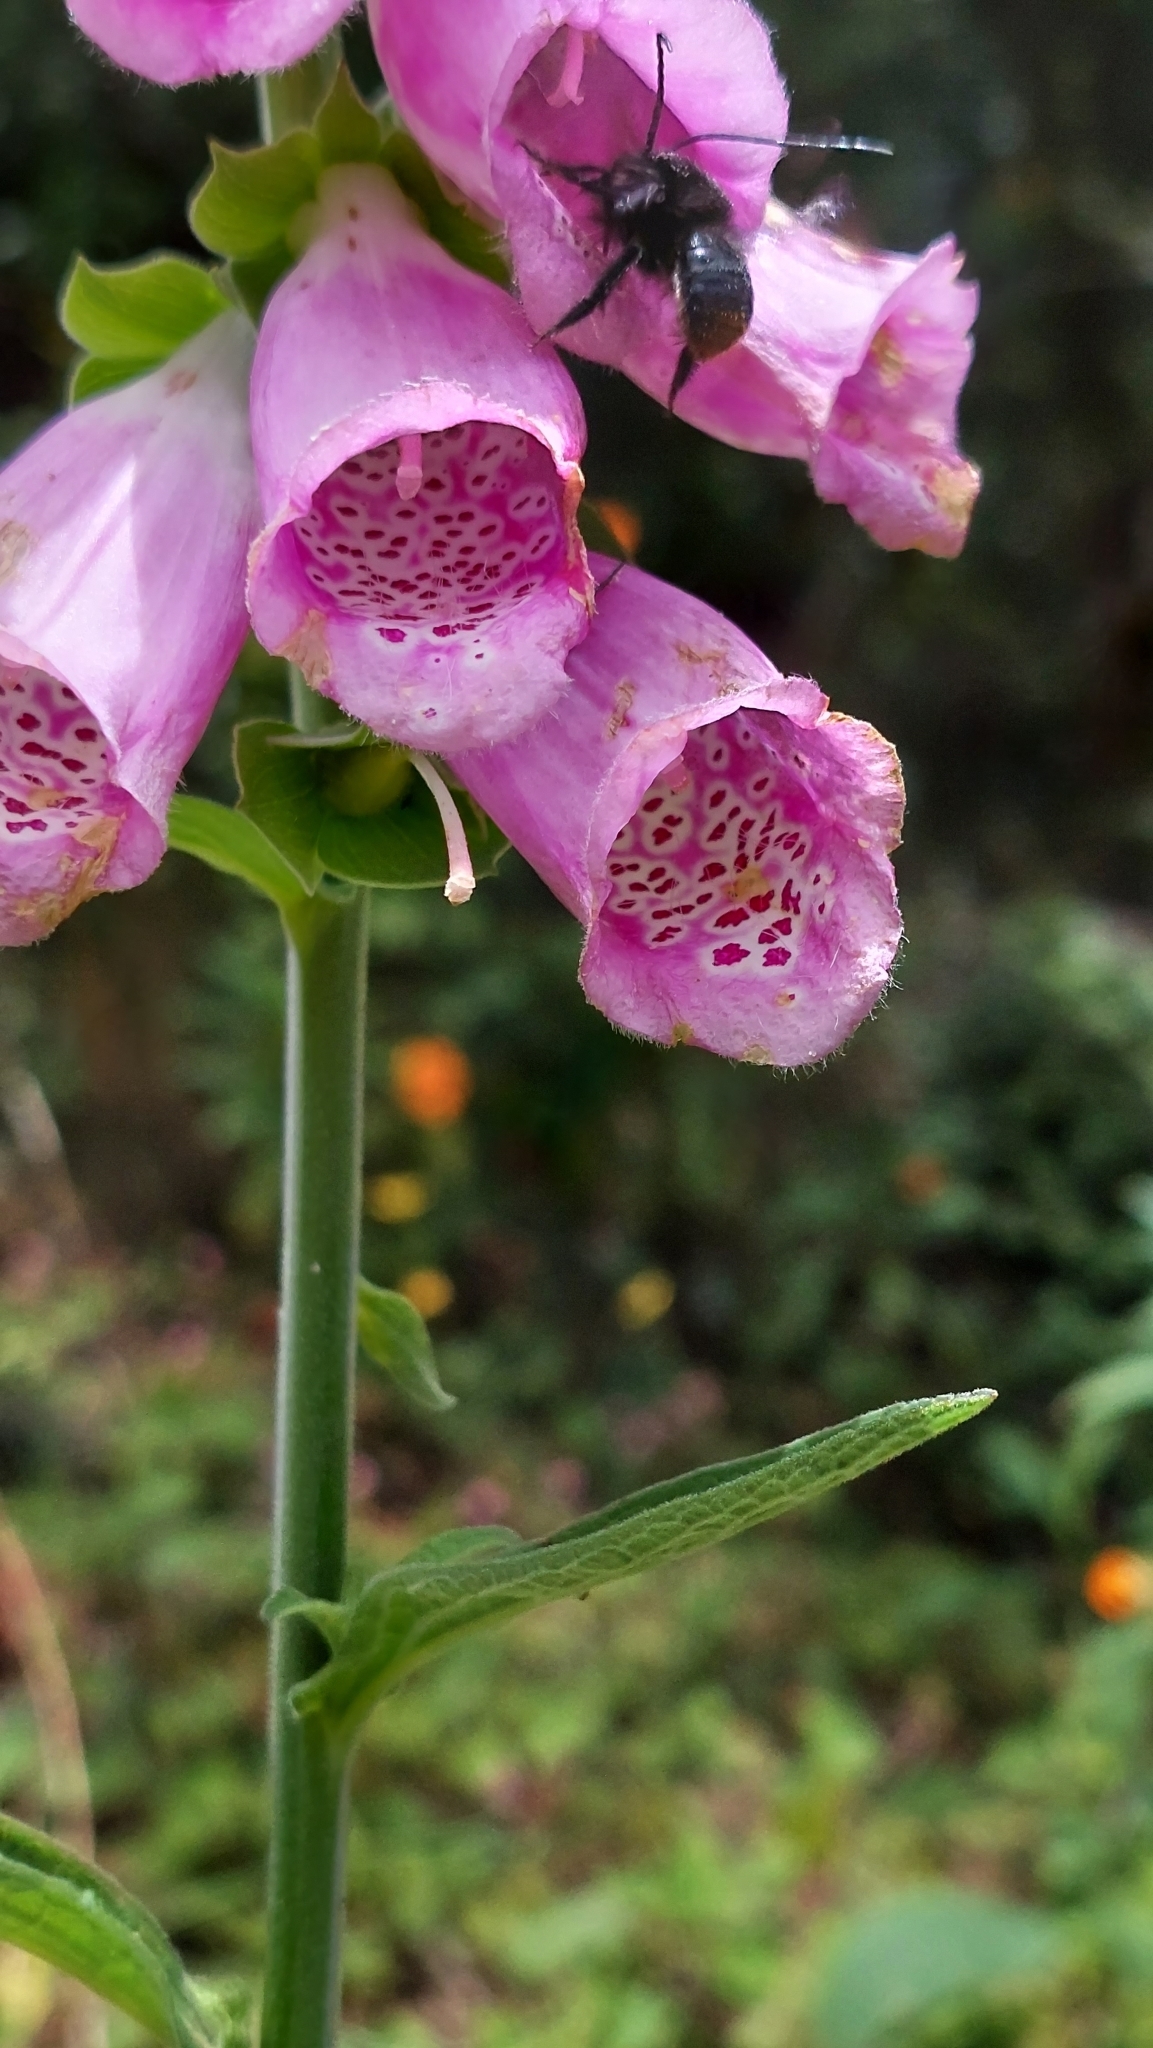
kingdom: Plantae
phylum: Tracheophyta
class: Magnoliopsida
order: Lamiales
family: Plantaginaceae
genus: Digitalis
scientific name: Digitalis purpurea
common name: Foxglove
